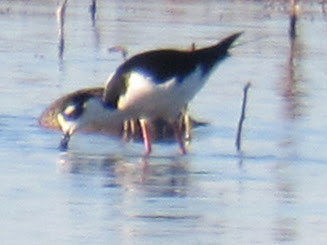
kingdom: Animalia
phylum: Chordata
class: Aves
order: Charadriiformes
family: Recurvirostridae
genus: Himantopus
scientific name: Himantopus mexicanus
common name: Black-necked stilt
